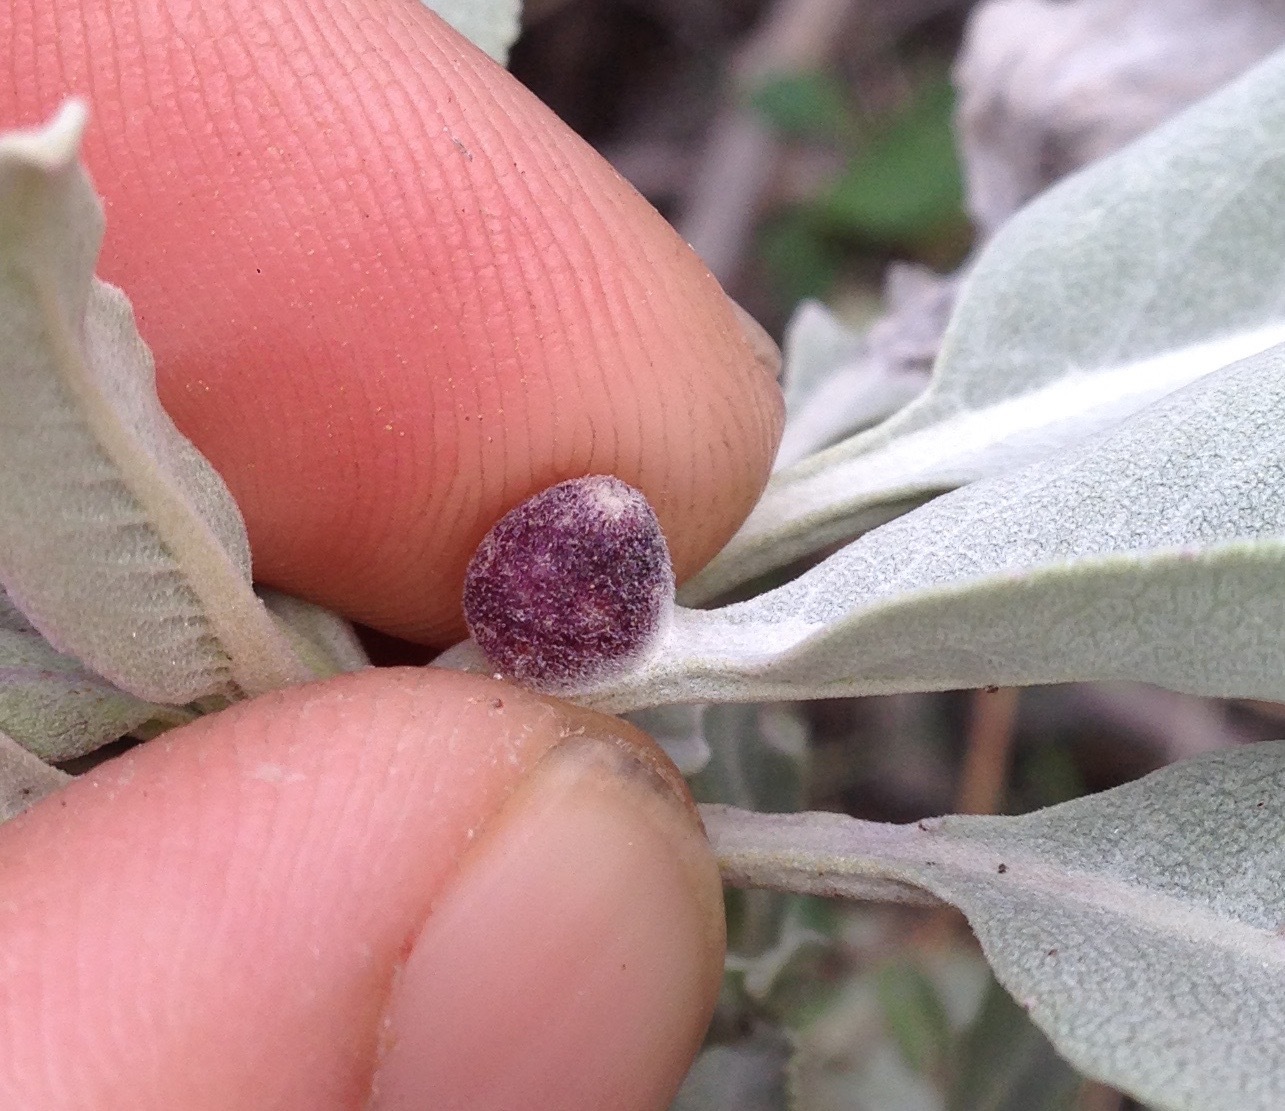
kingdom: Animalia
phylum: Arthropoda
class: Insecta
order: Diptera
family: Cecidomyiidae
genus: Rhopalomyia
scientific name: Rhopalomyia audibertiae
